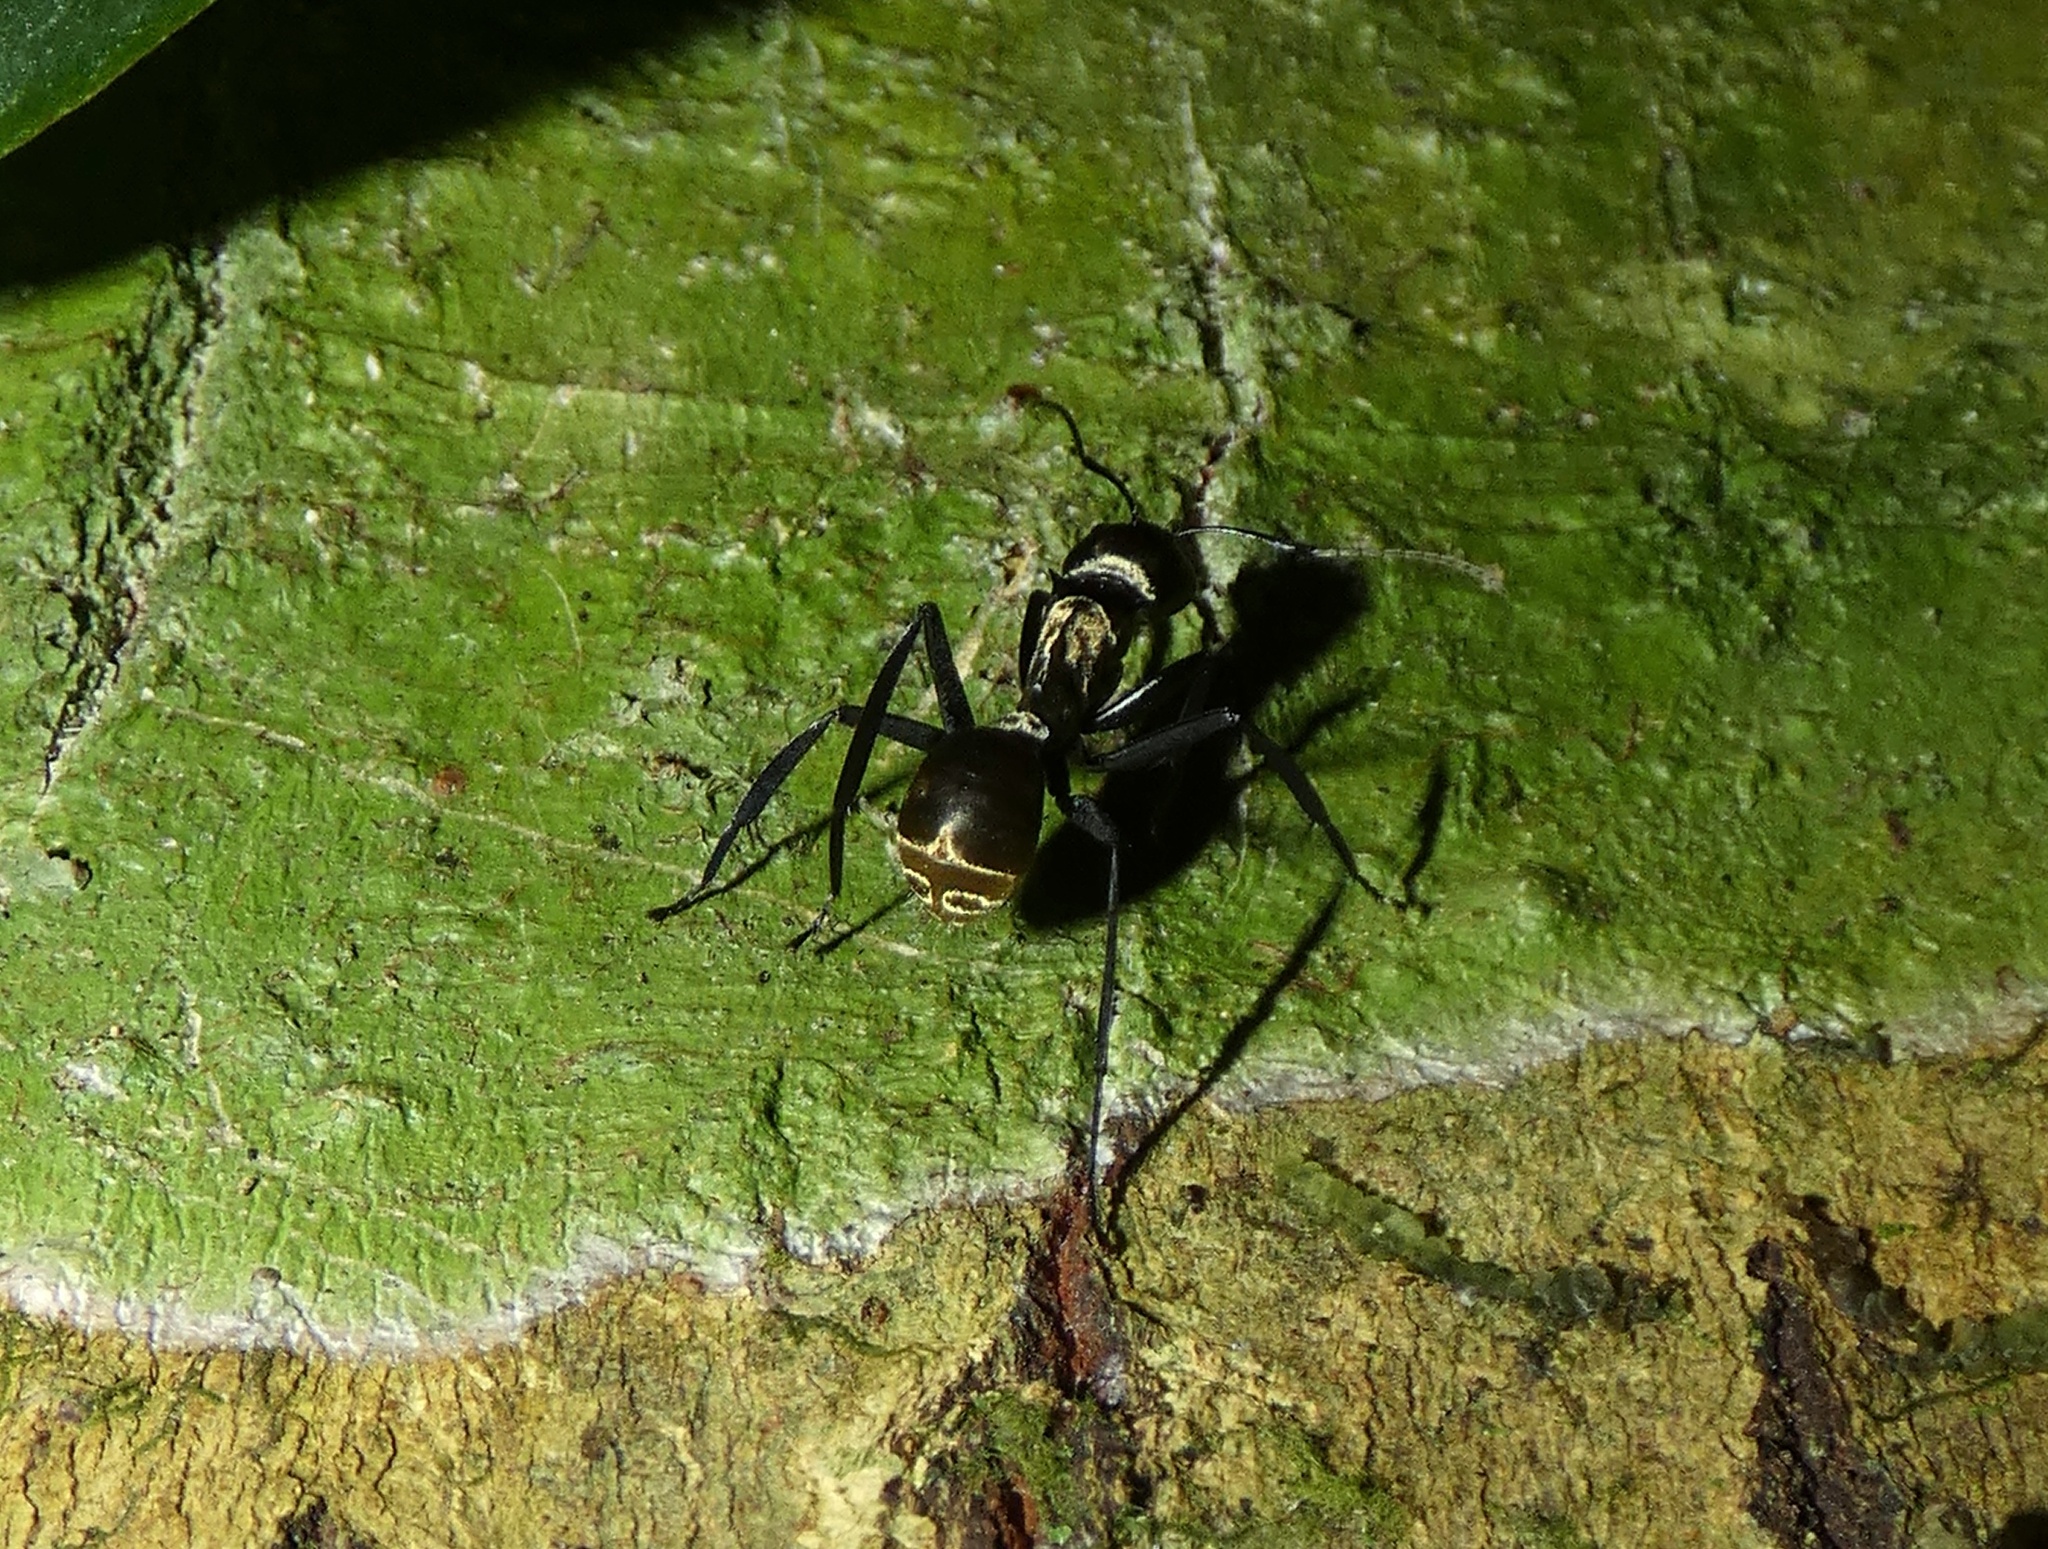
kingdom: Animalia
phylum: Arthropoda
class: Insecta
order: Hymenoptera
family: Formicidae
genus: Camponotus
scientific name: Camponotus sericeiventris
